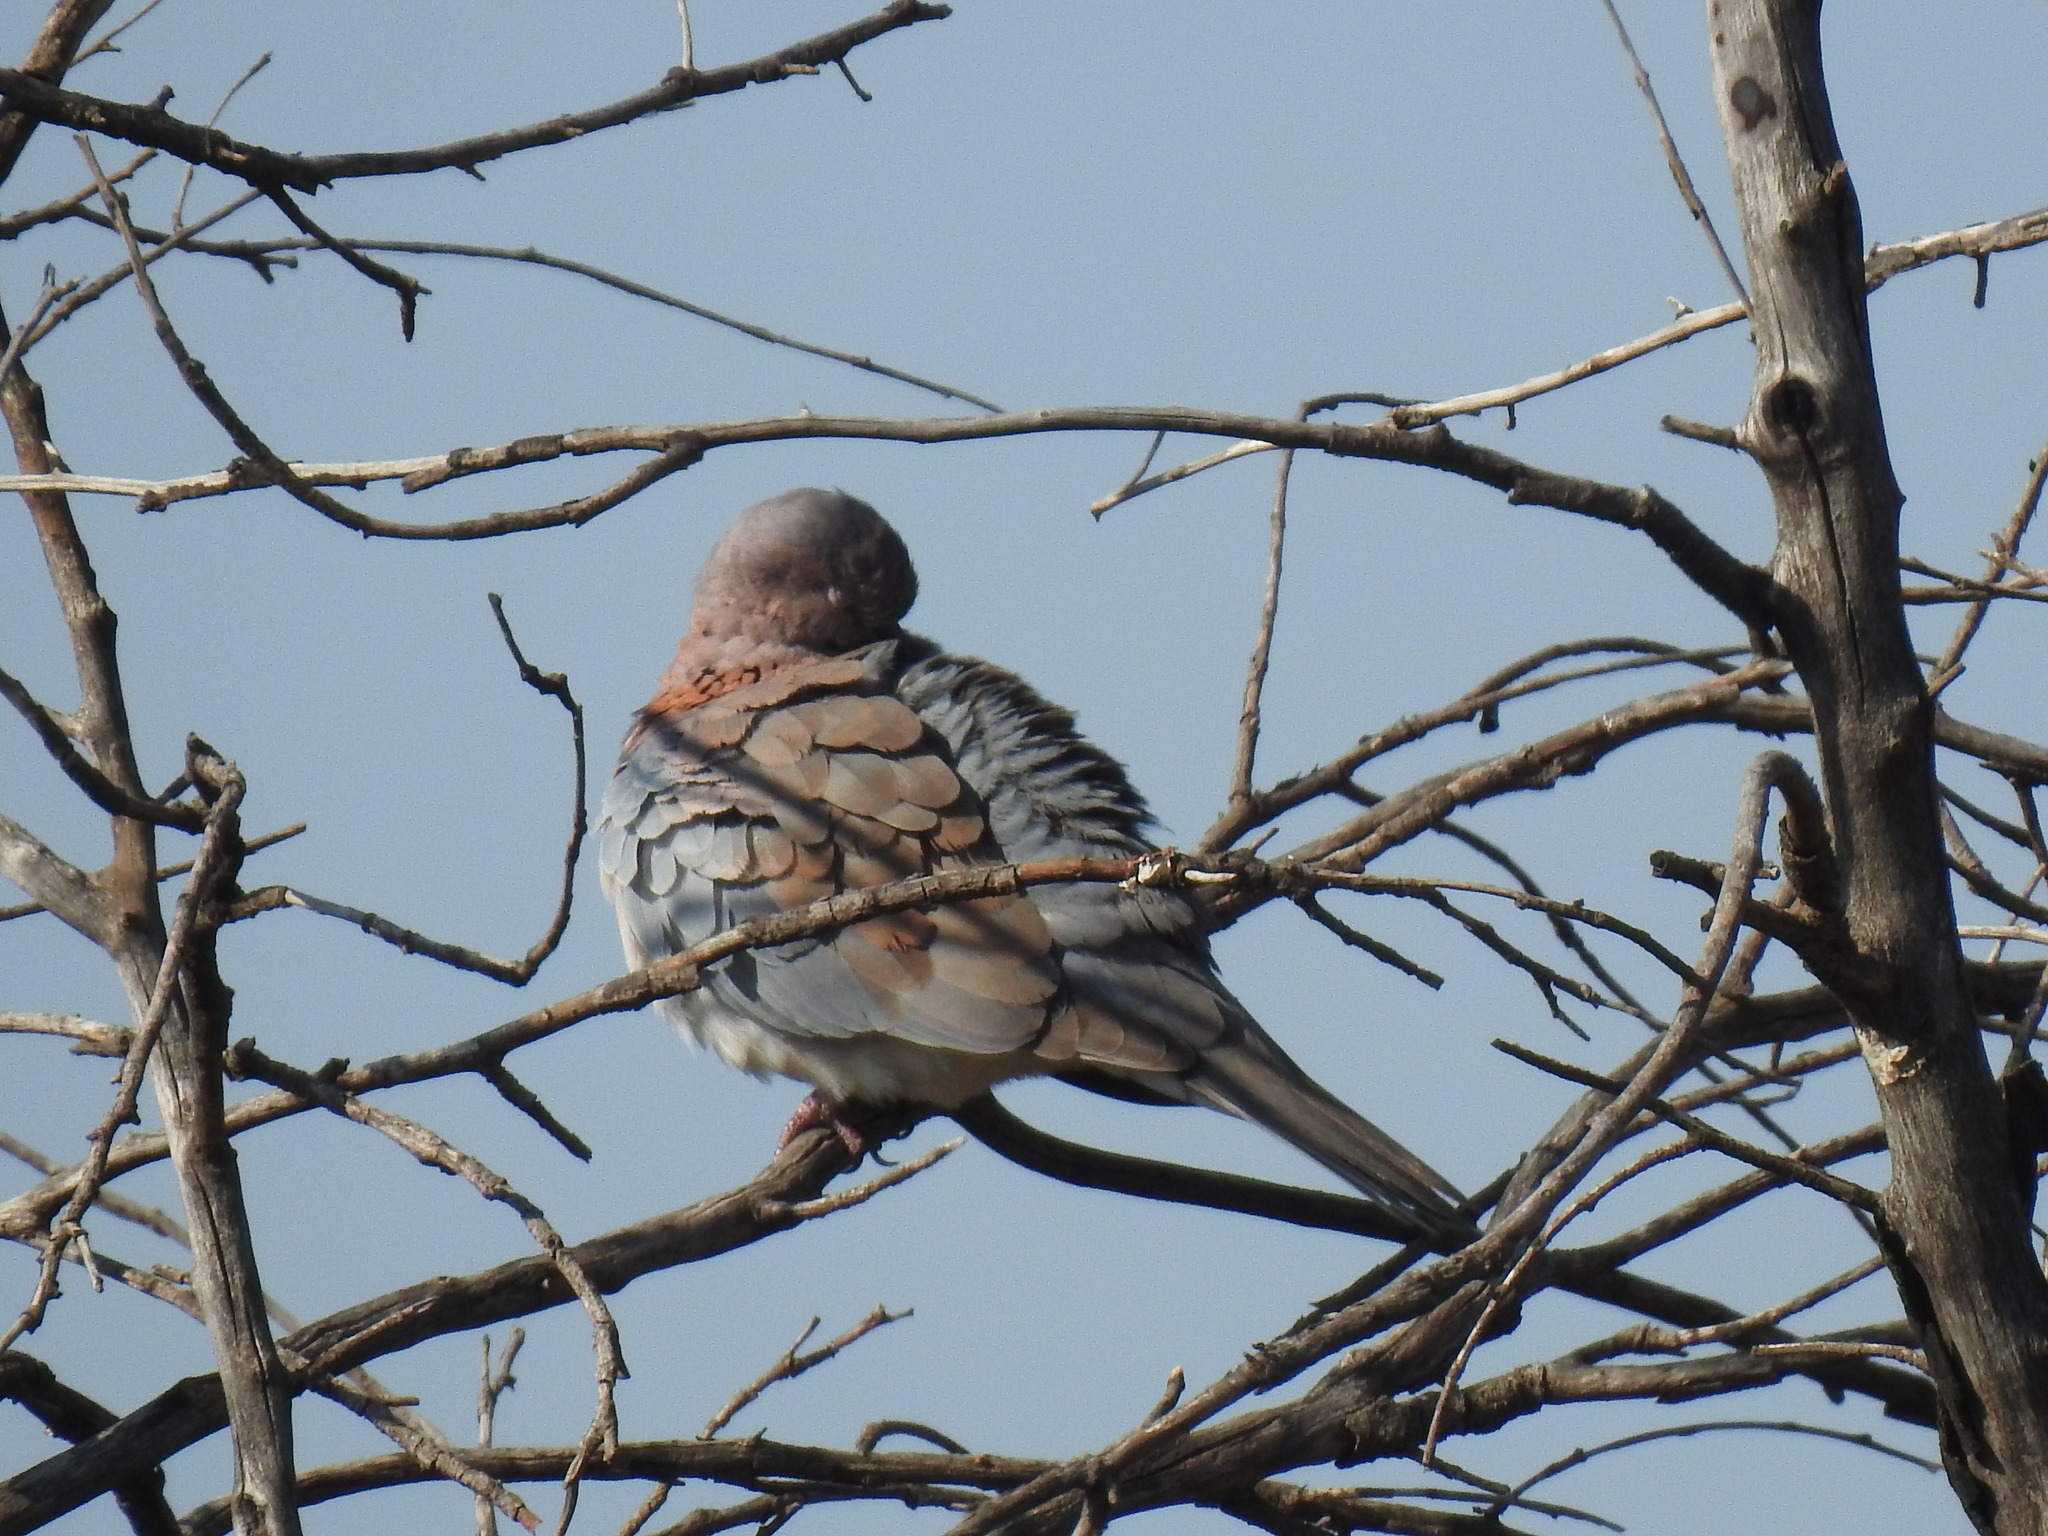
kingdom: Animalia
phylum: Chordata
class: Aves
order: Columbiformes
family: Columbidae
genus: Spilopelia
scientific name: Spilopelia senegalensis
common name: Laughing dove
